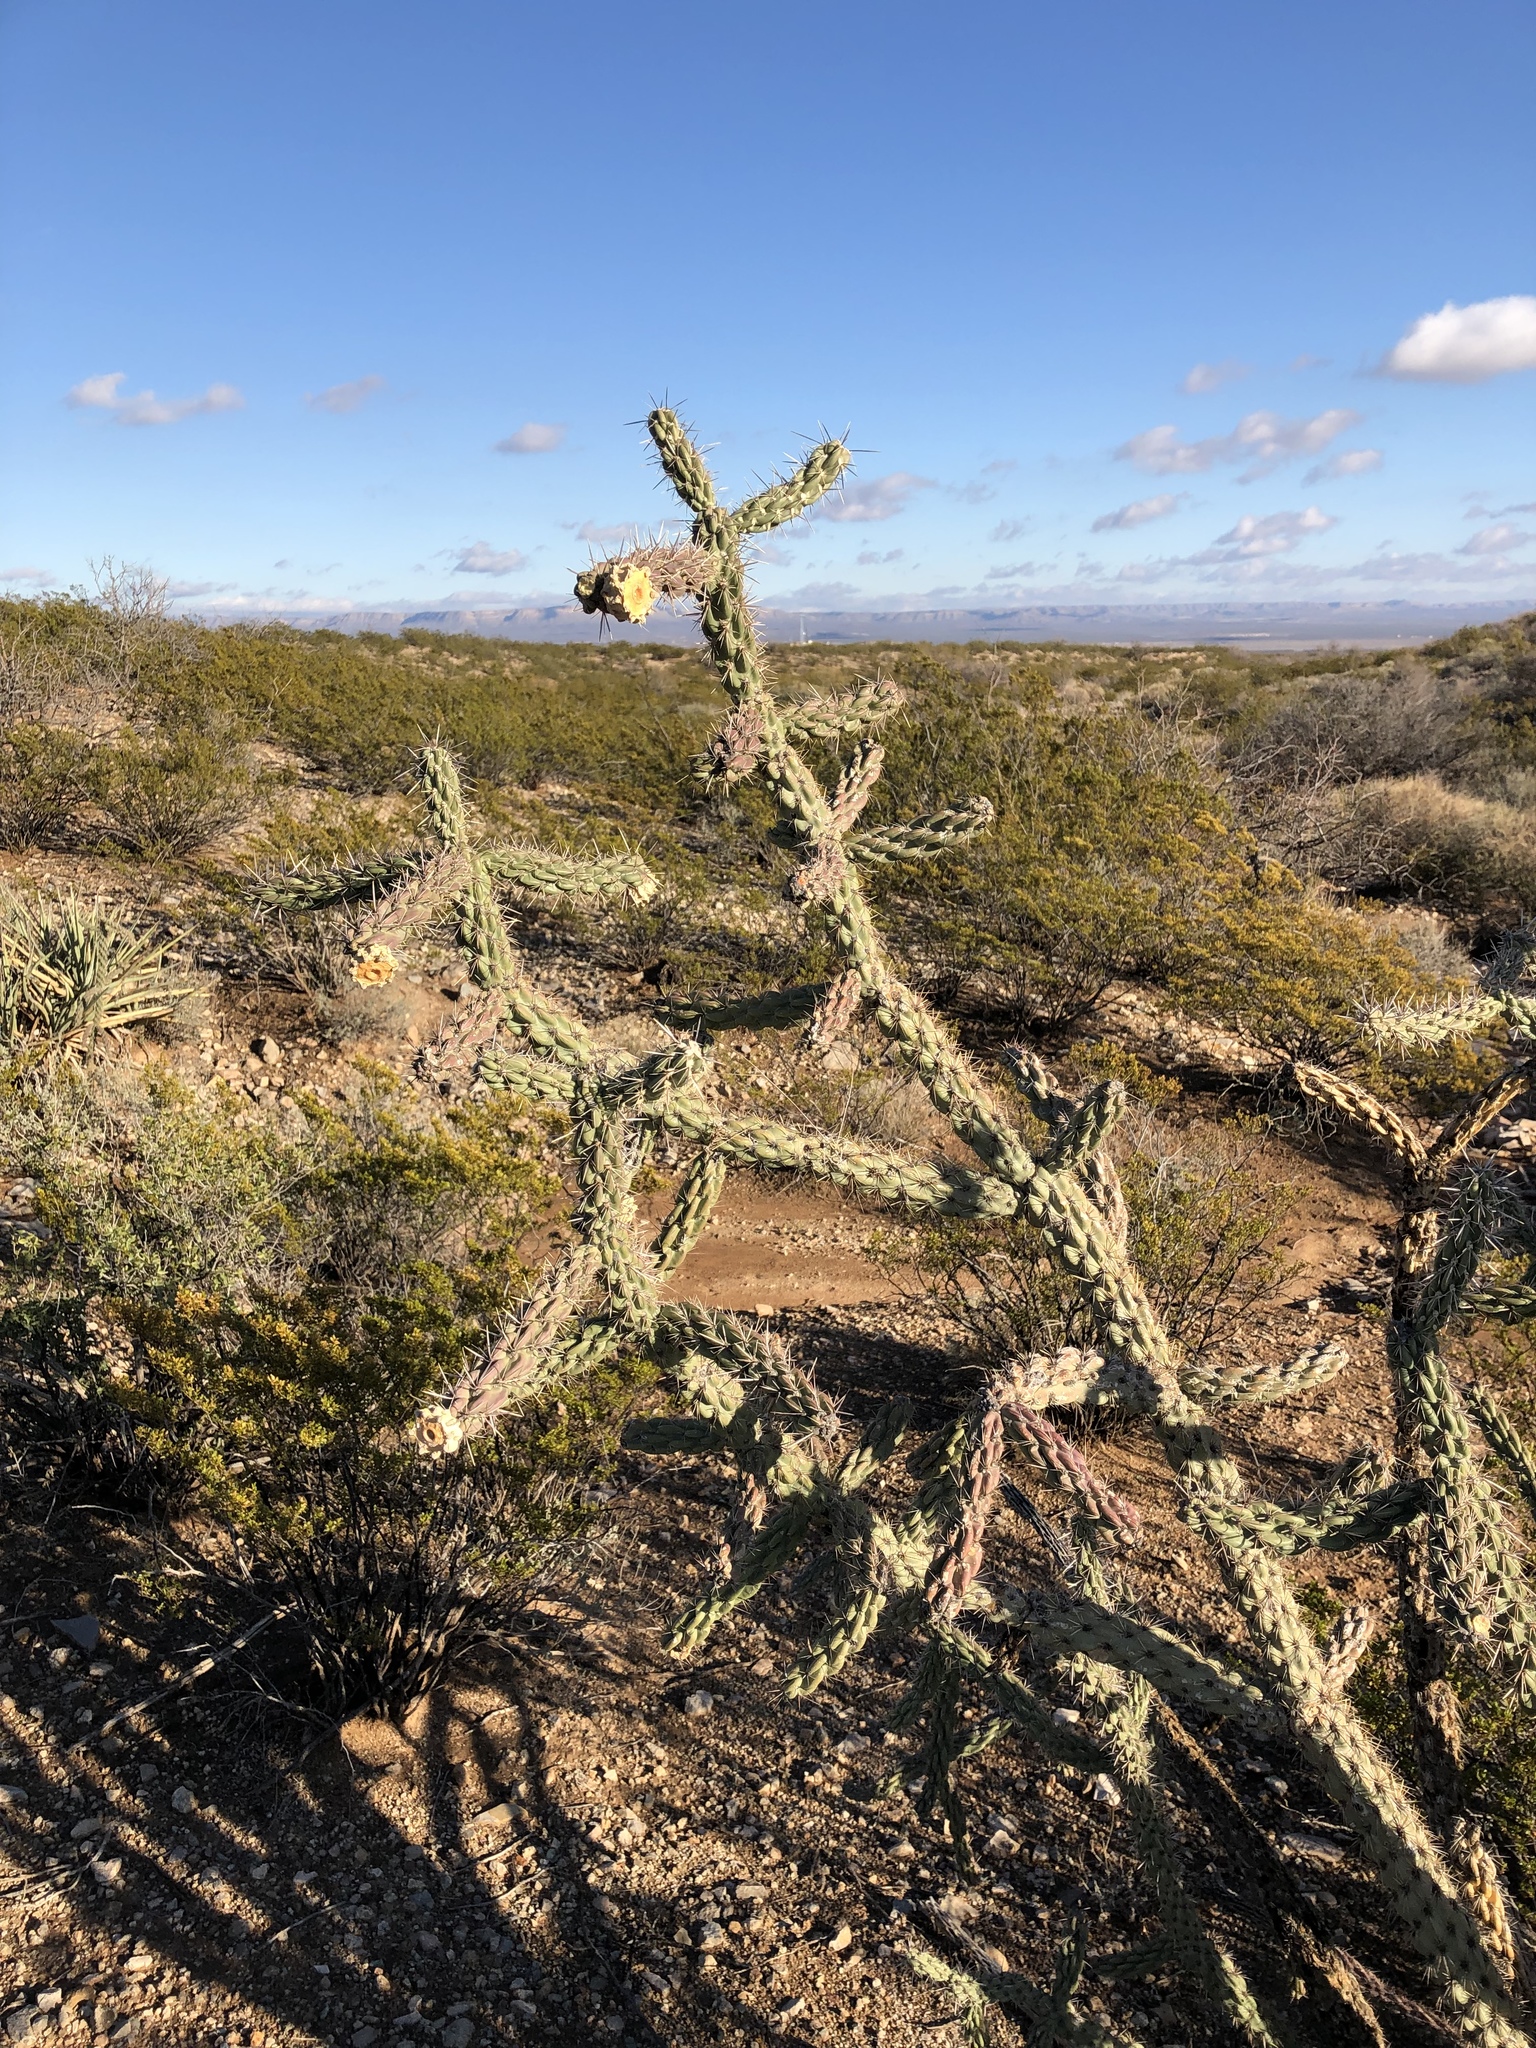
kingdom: Plantae
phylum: Tracheophyta
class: Magnoliopsida
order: Caryophyllales
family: Cactaceae
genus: Cylindropuntia
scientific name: Cylindropuntia imbricata
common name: Candelabrum cactus
